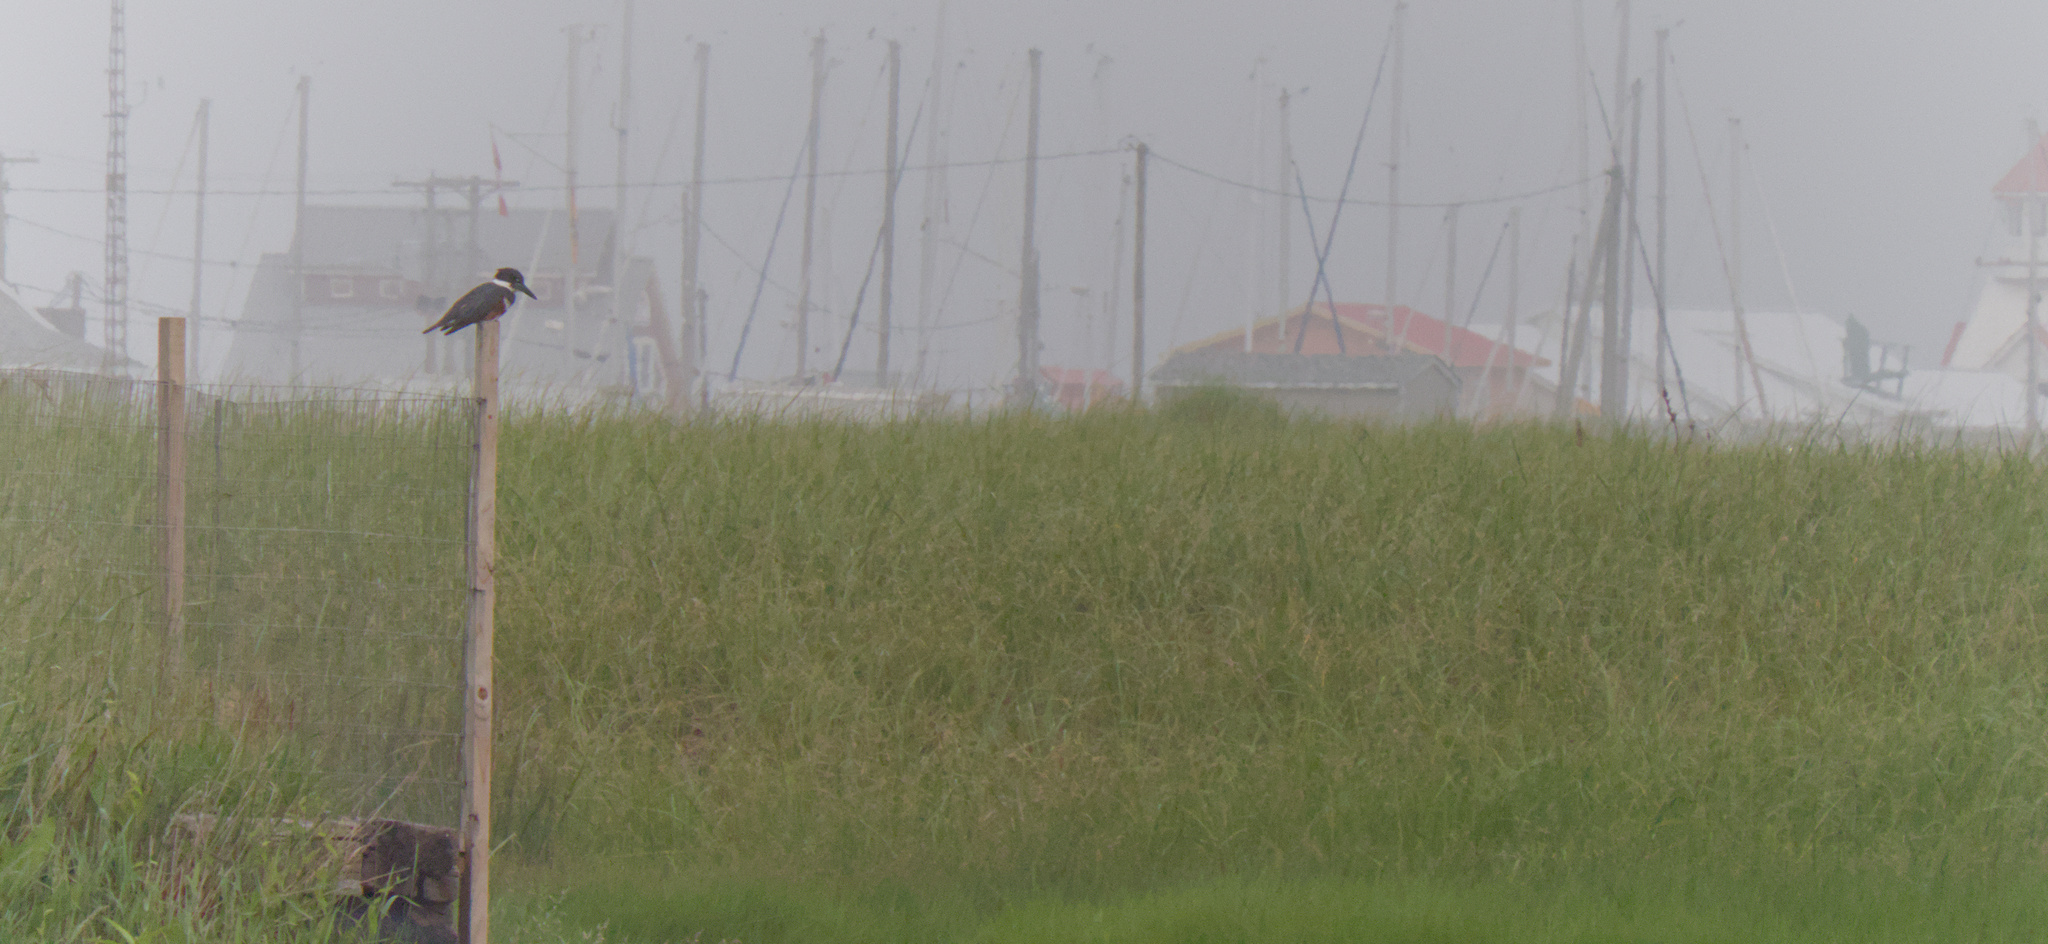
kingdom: Animalia
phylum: Chordata
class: Aves
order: Coraciiformes
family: Alcedinidae
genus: Megaceryle
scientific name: Megaceryle alcyon
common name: Belted kingfisher
